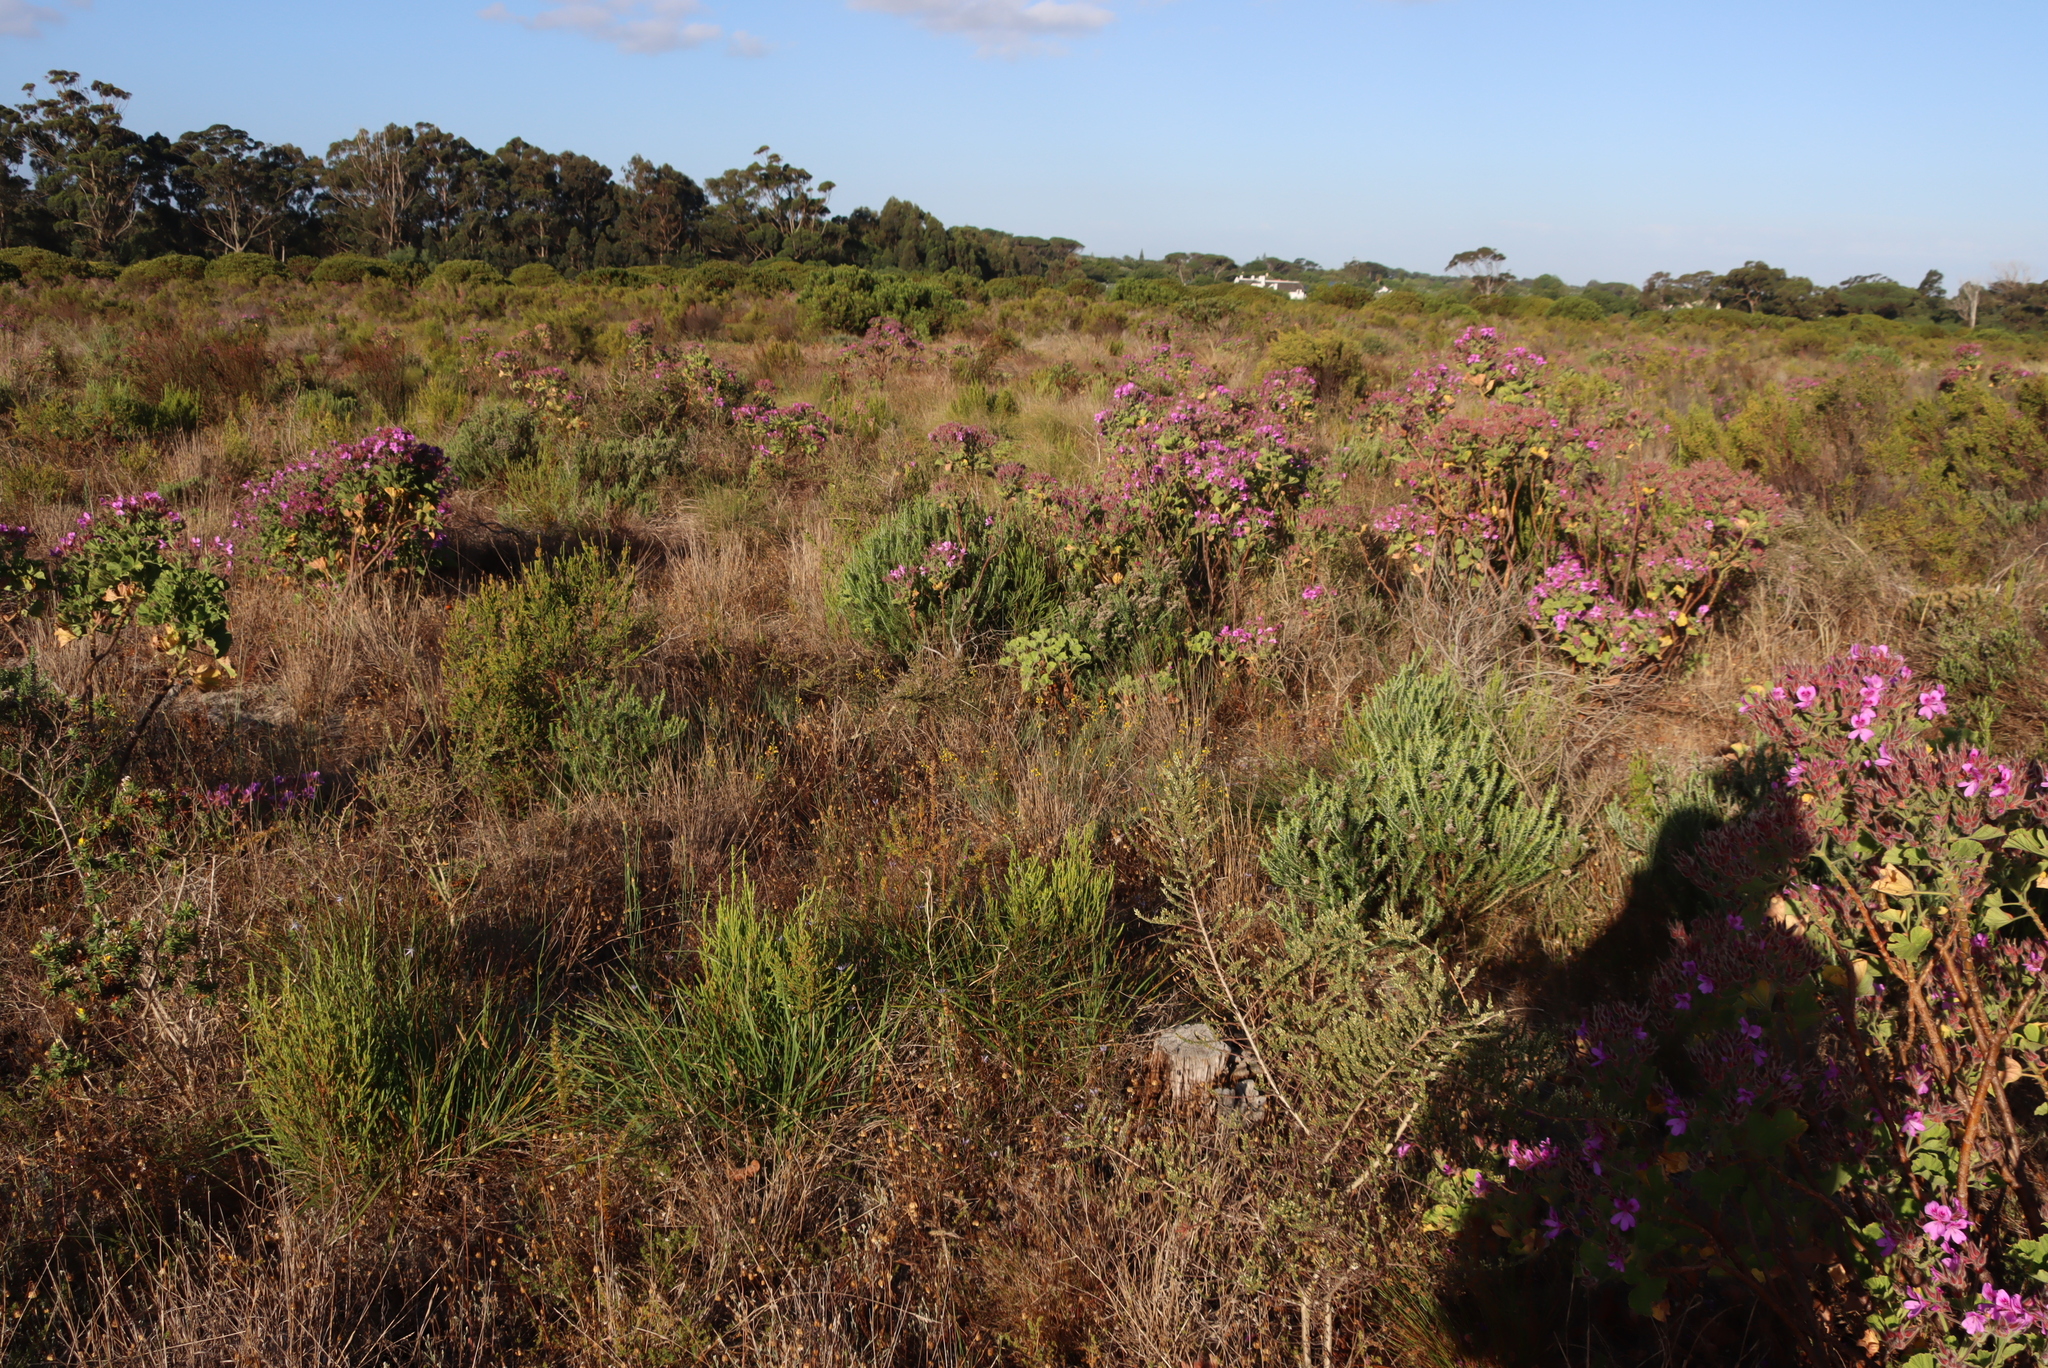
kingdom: Plantae
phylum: Tracheophyta
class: Magnoliopsida
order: Geraniales
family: Geraniaceae
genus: Pelargonium
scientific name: Pelargonium cucullatum
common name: Tree pelargonium
